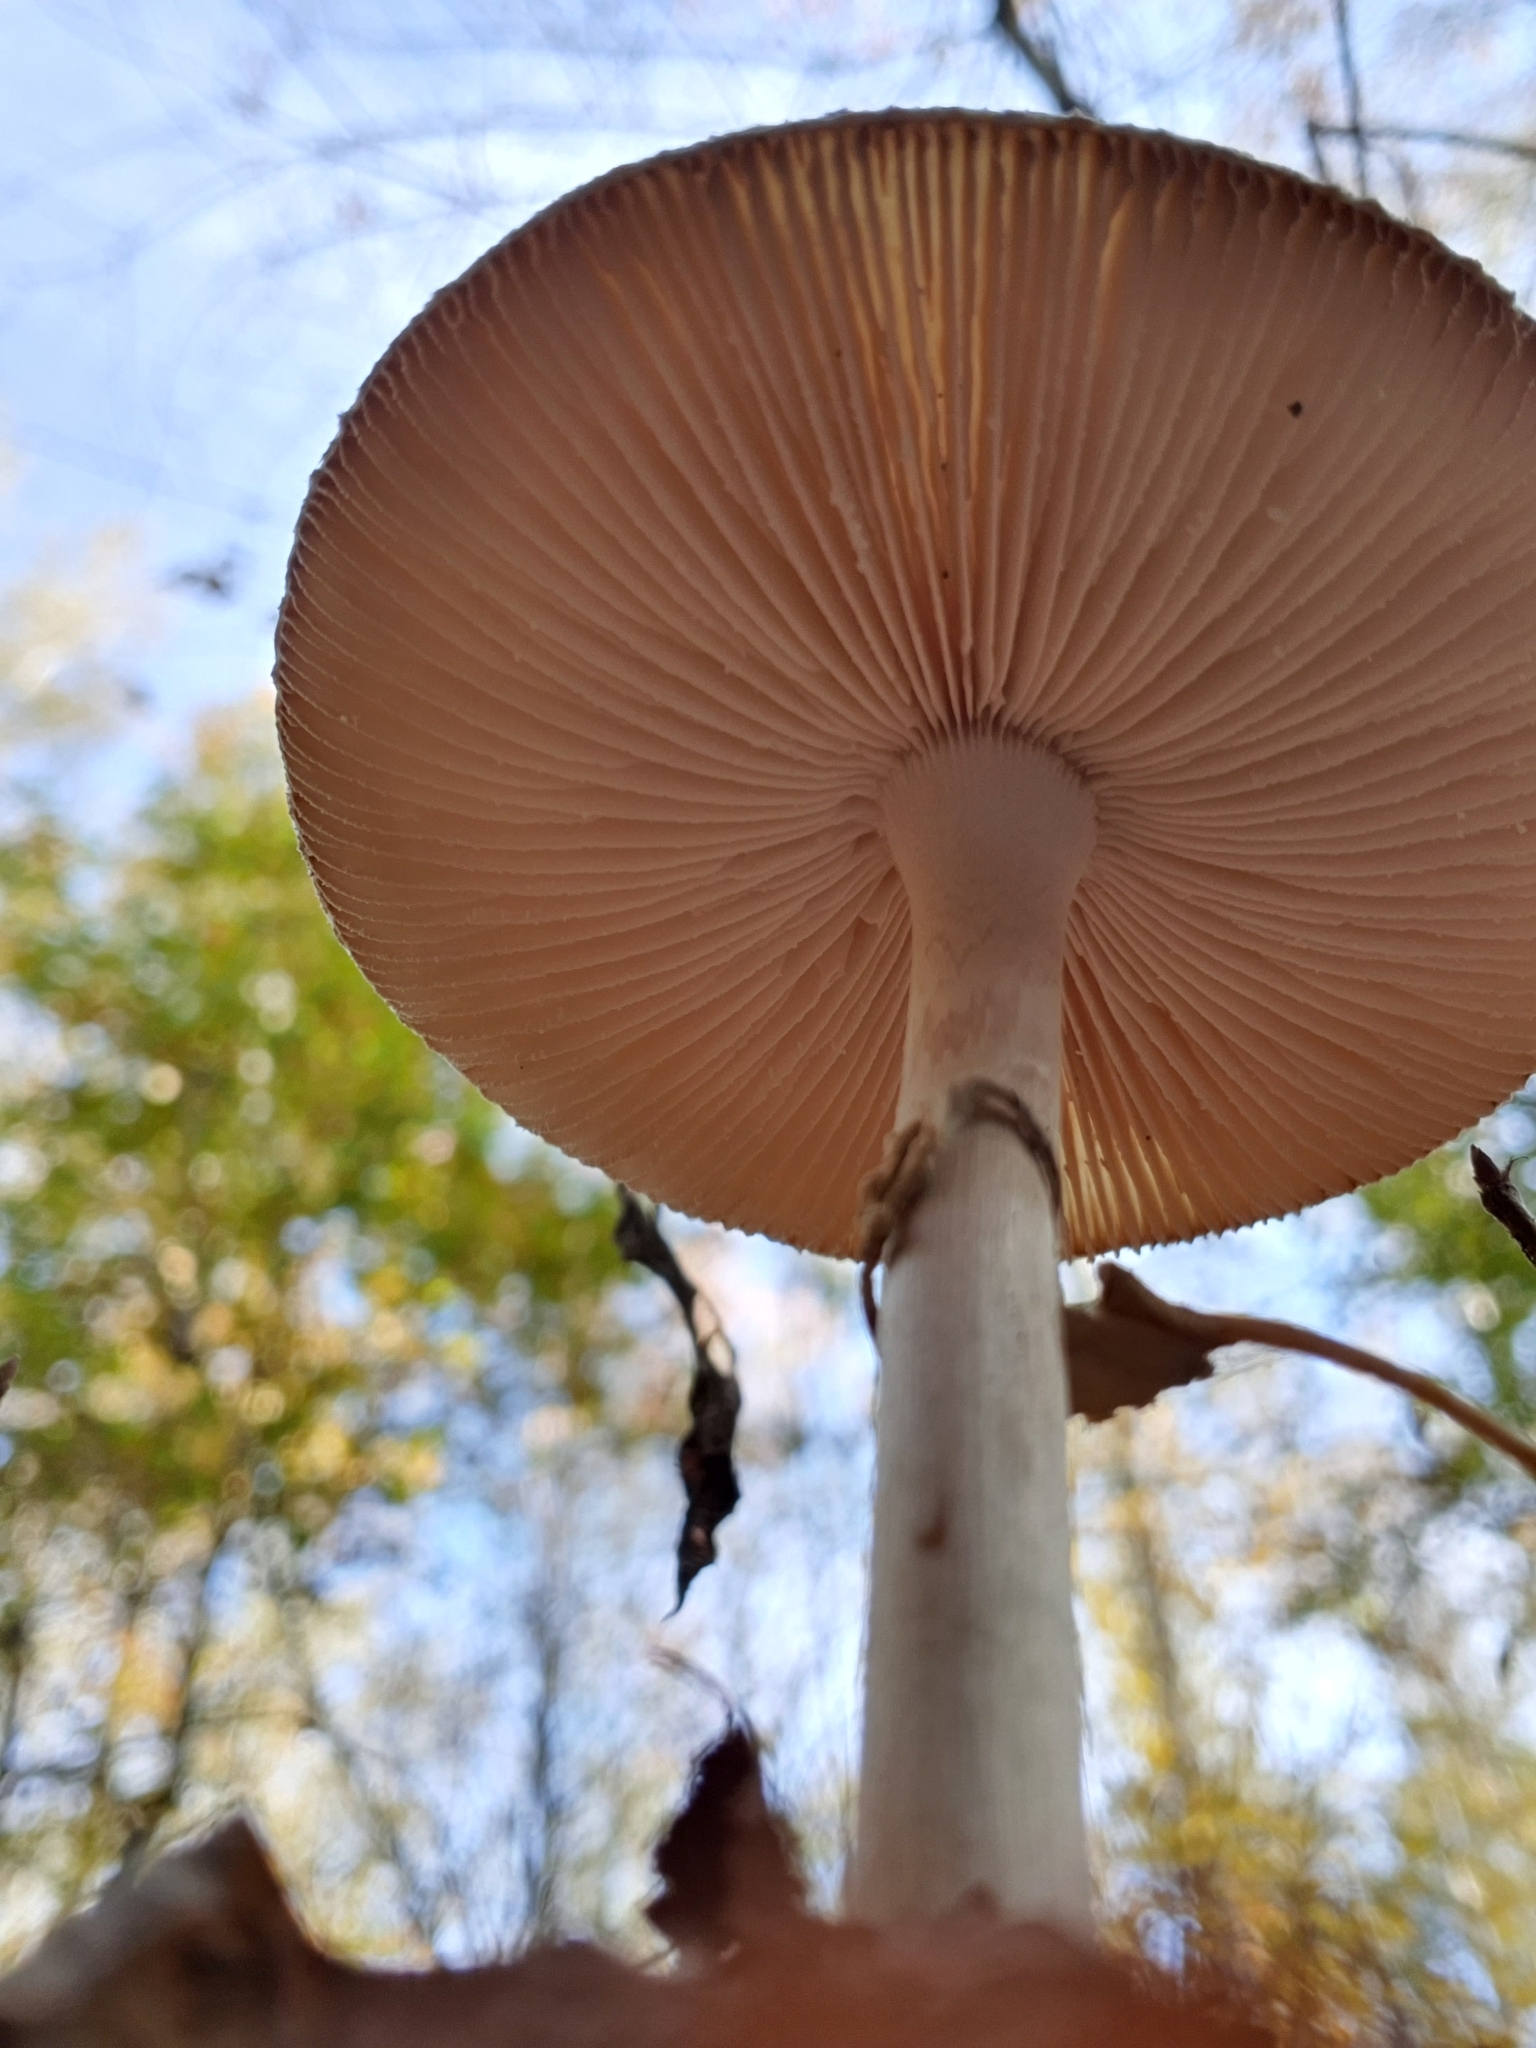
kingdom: Fungi
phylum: Basidiomycota
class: Agaricomycetes
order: Agaricales
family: Amanitaceae
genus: Amanita
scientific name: Amanita citrina
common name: False death-cap
